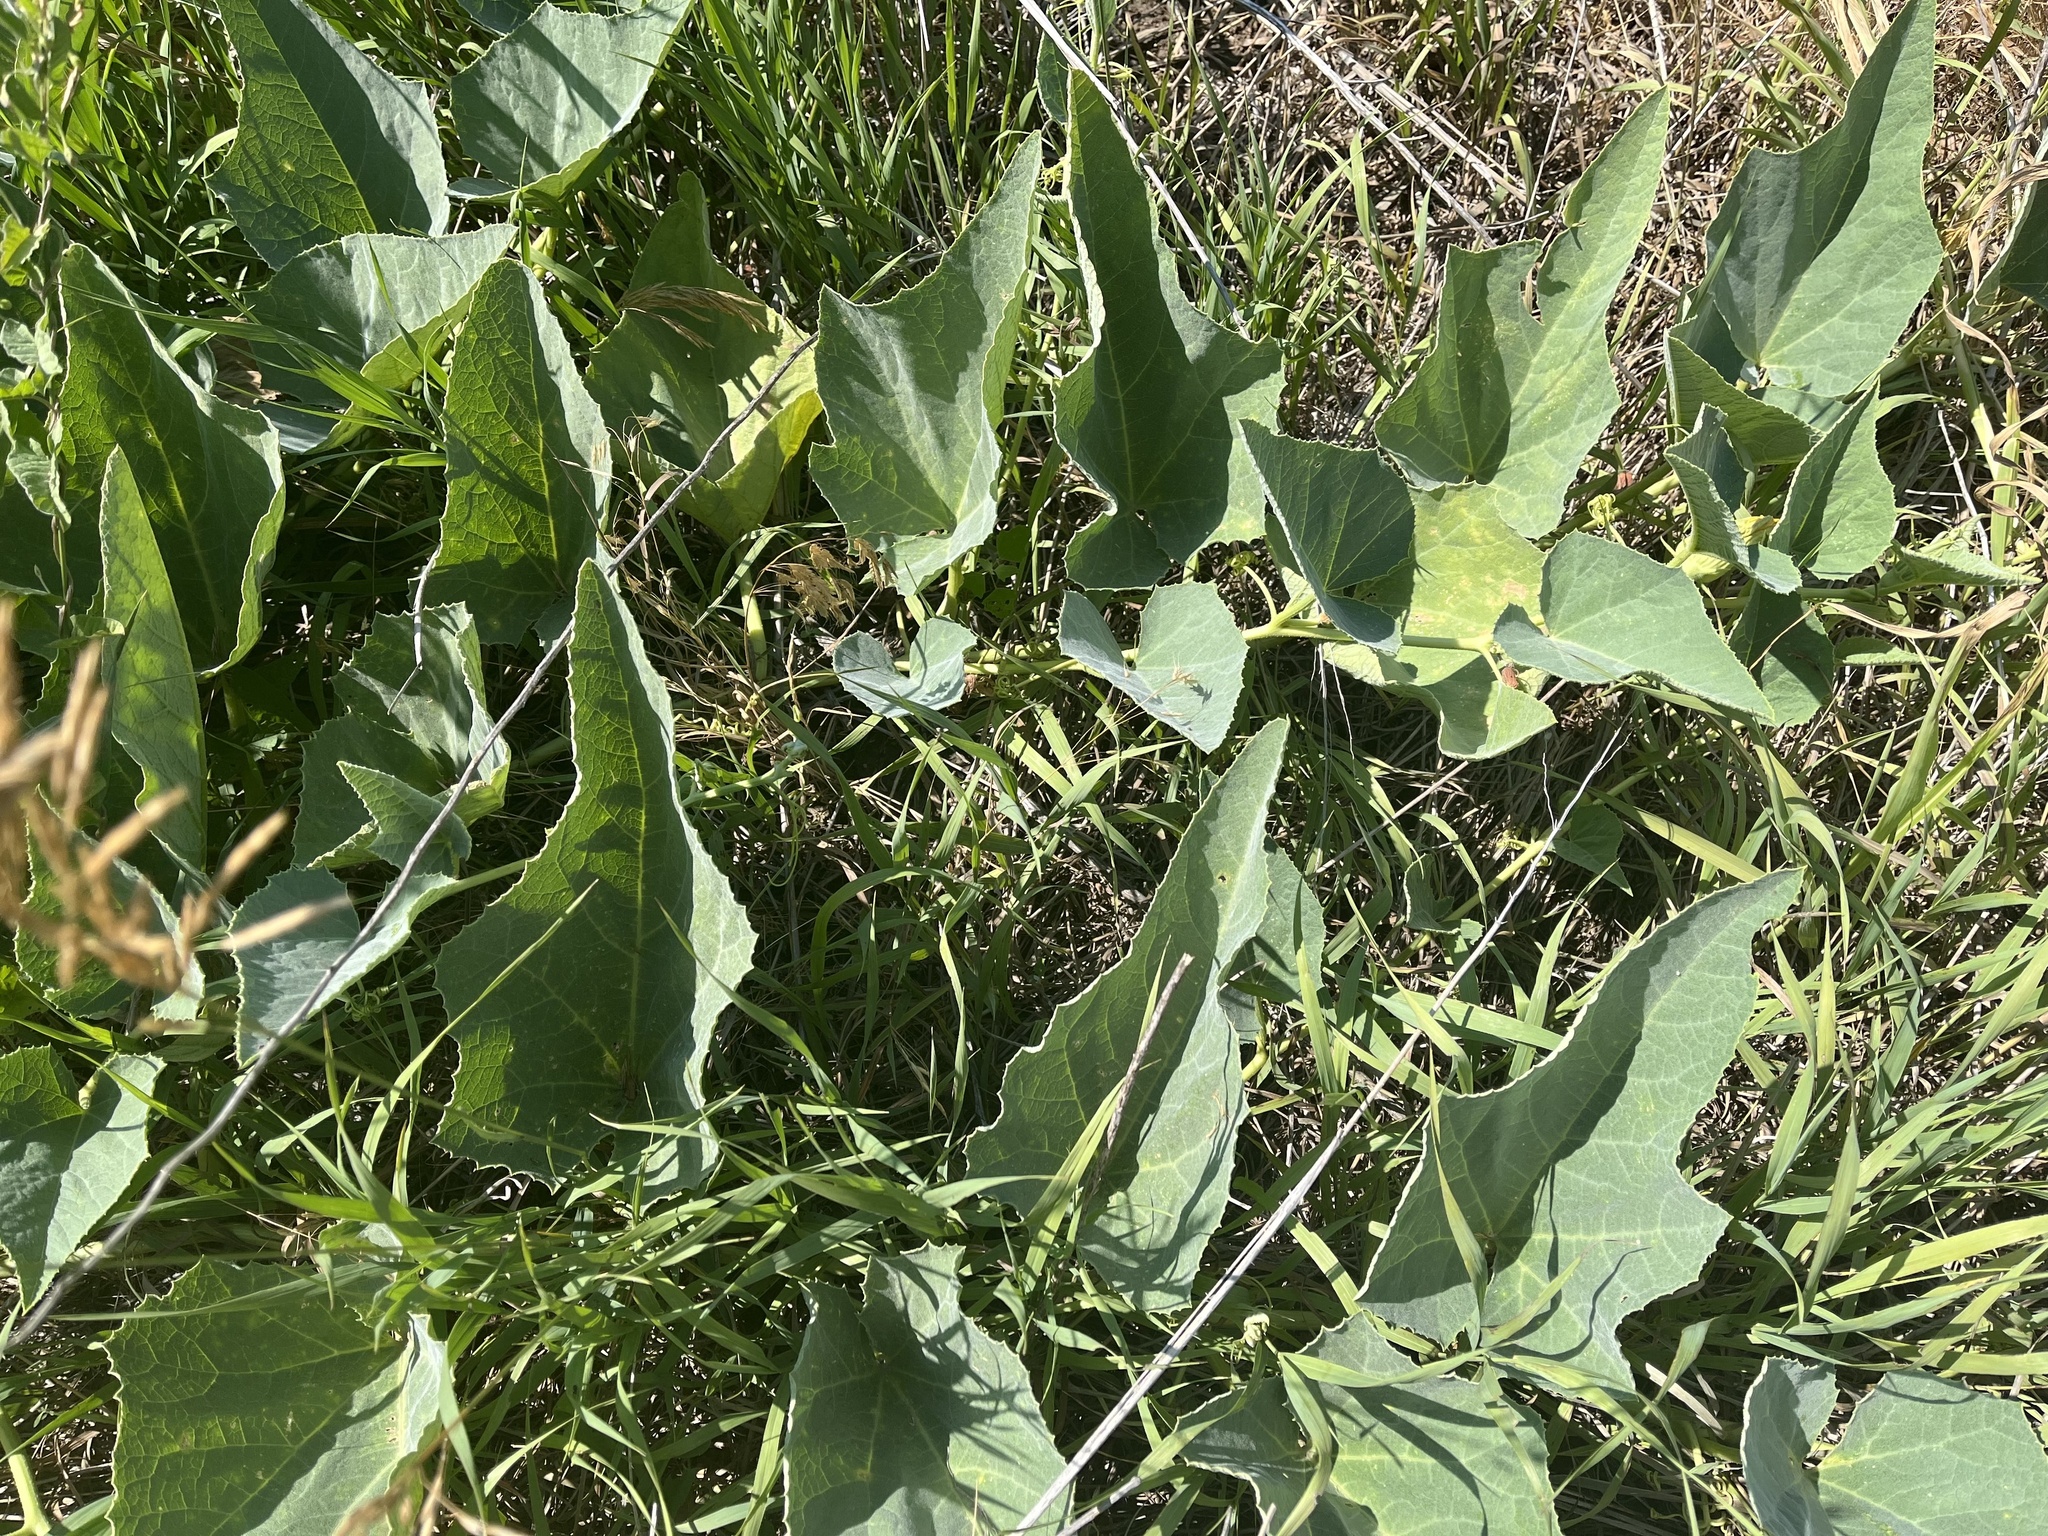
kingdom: Plantae
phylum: Tracheophyta
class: Magnoliopsida
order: Cucurbitales
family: Cucurbitaceae
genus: Cucurbita
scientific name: Cucurbita foetidissima
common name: Buffalo gourd
